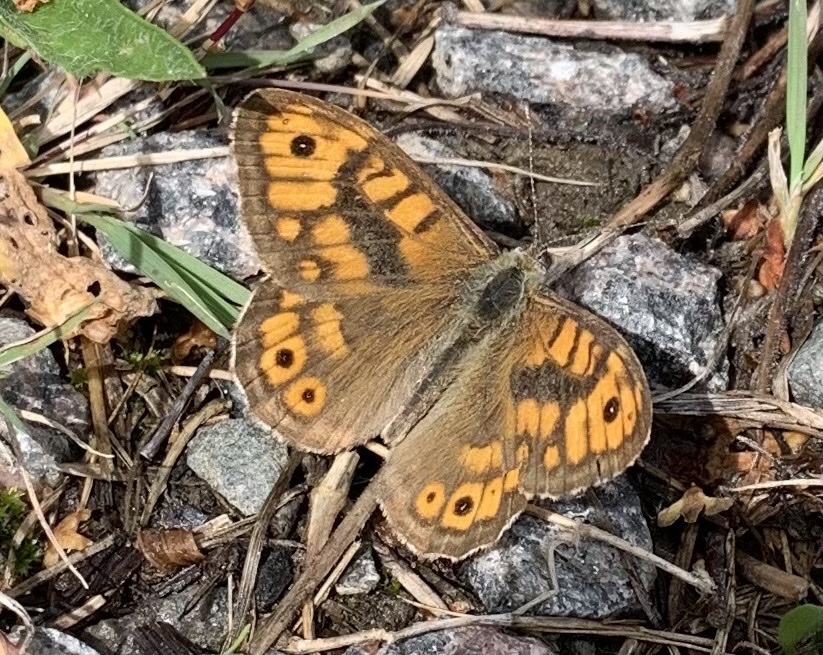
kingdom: Animalia
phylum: Arthropoda
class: Insecta
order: Lepidoptera
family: Nymphalidae
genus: Pararge
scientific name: Pararge Lasiommata megera
